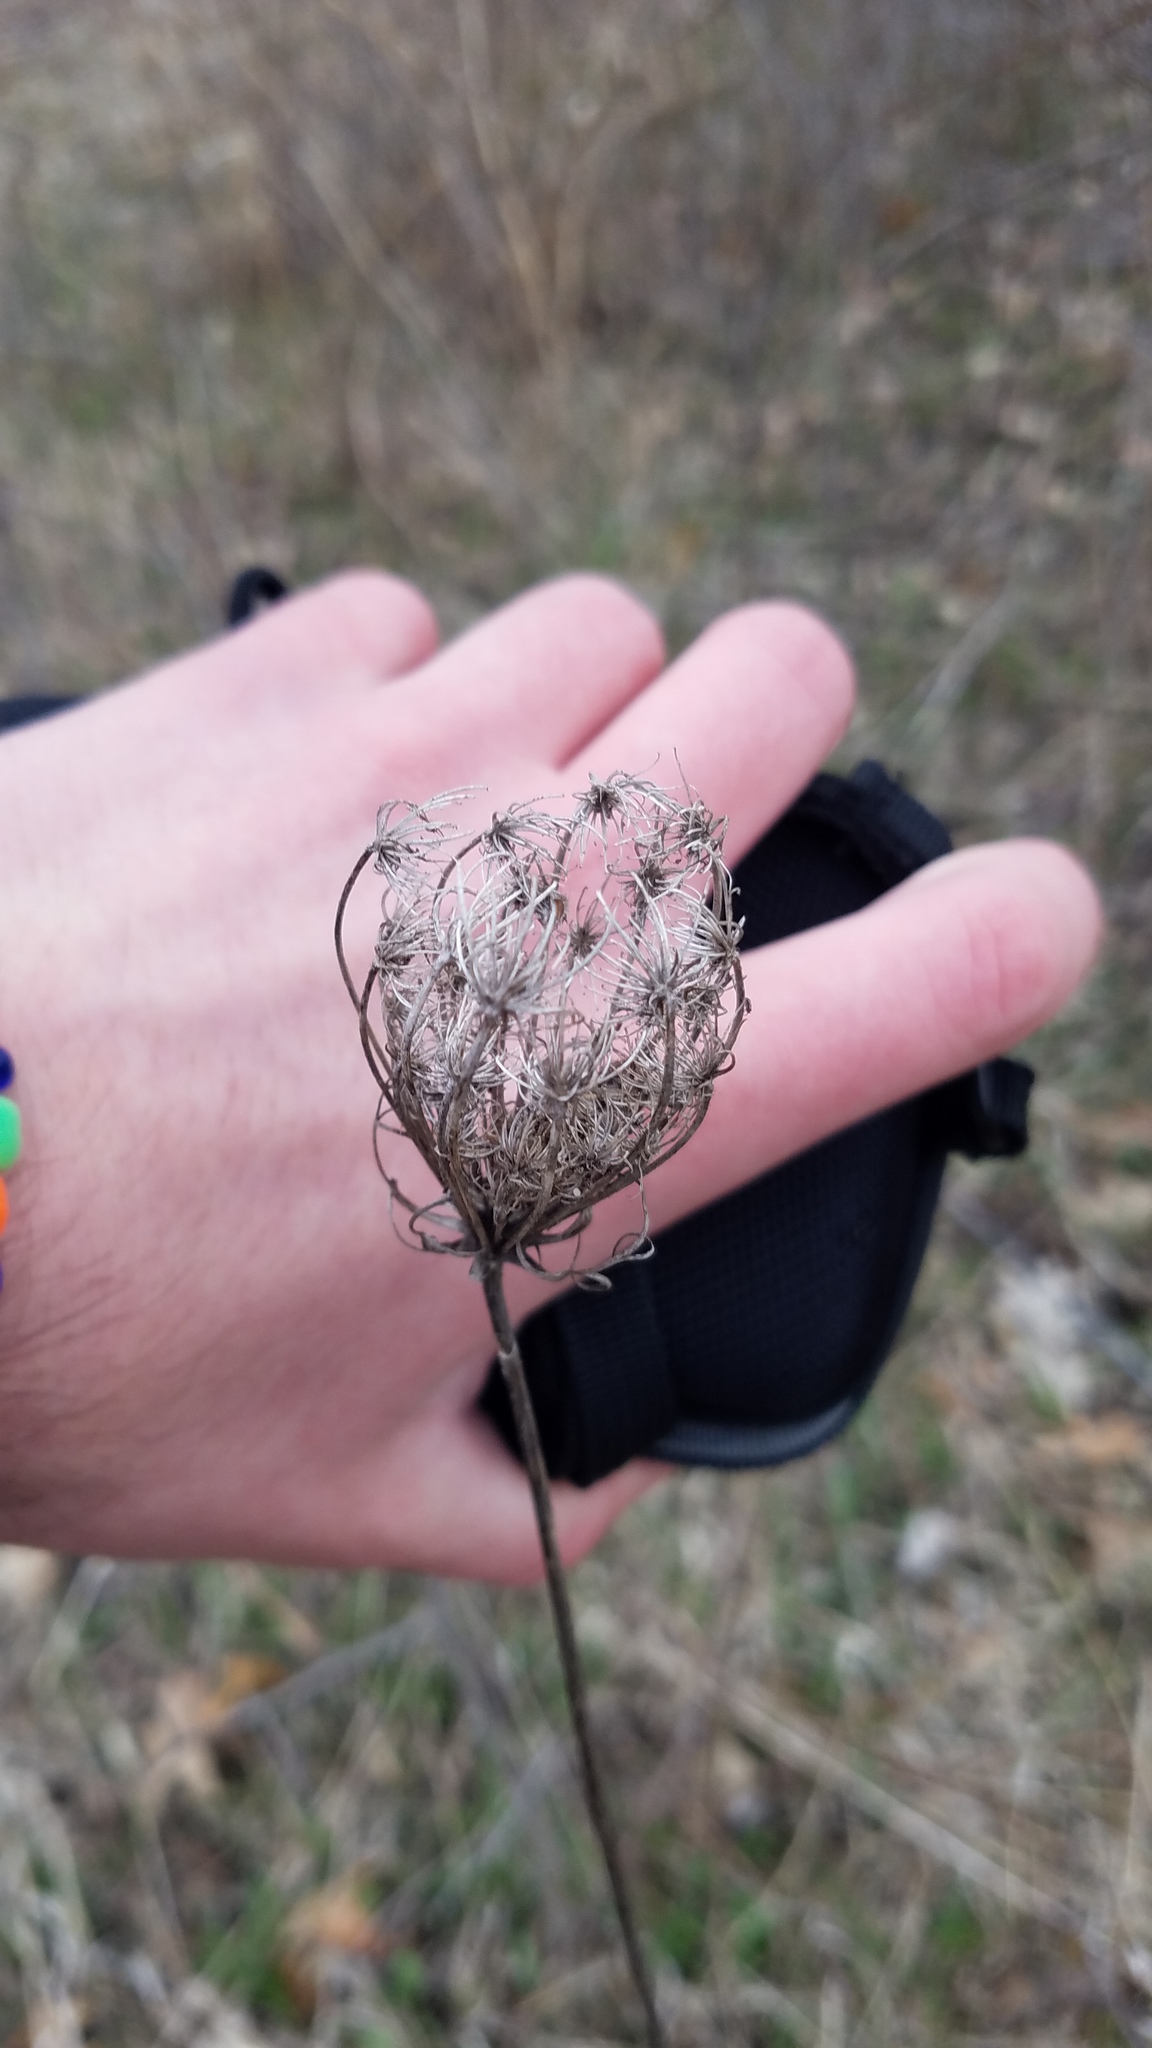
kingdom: Plantae
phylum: Tracheophyta
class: Magnoliopsida
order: Apiales
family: Apiaceae
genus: Daucus
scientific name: Daucus carota
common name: Wild carrot
